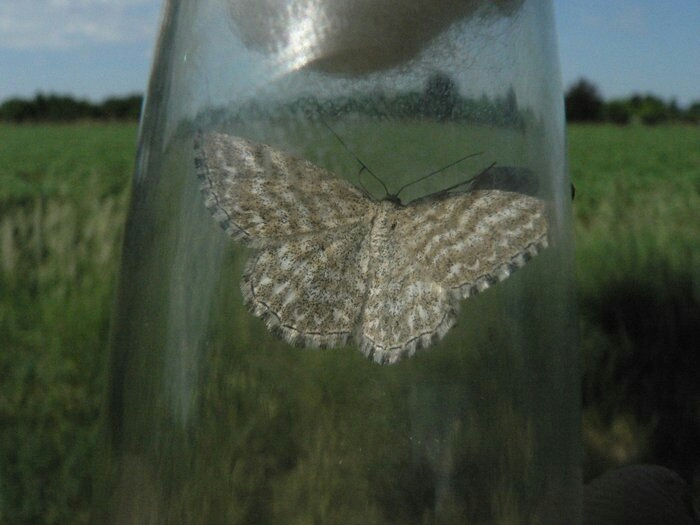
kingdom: Animalia
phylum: Arthropoda
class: Insecta
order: Lepidoptera
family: Geometridae
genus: Scopula
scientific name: Scopula immorata
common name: Lewes wave
